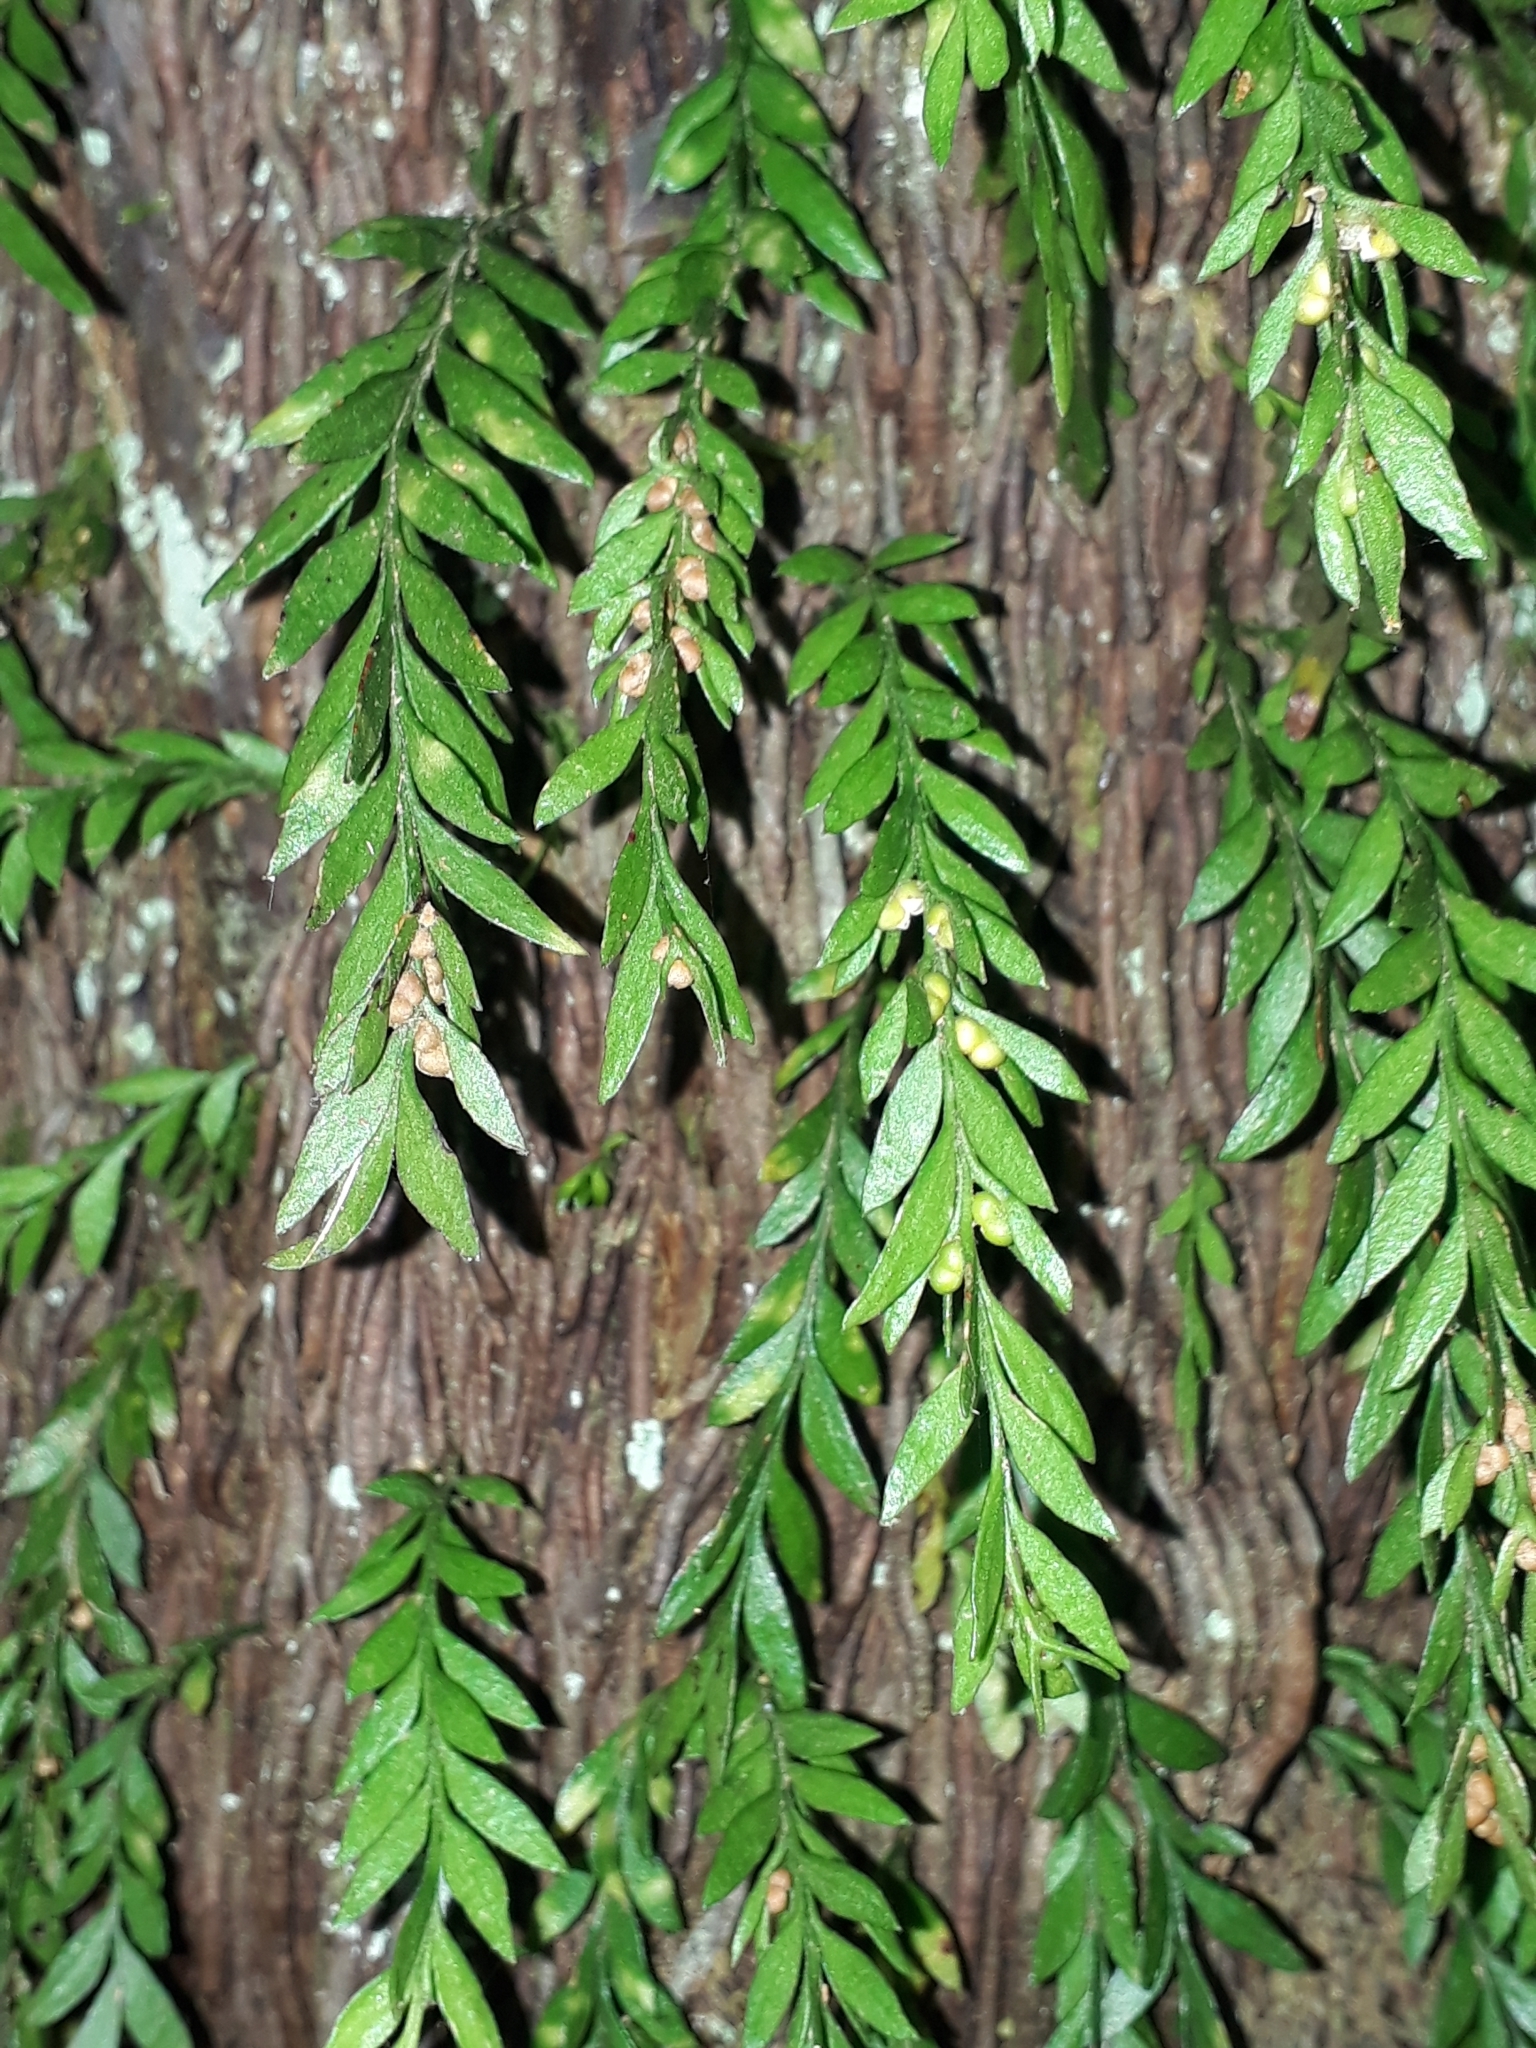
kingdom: Plantae
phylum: Tracheophyta
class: Polypodiopsida
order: Psilotales
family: Psilotaceae
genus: Tmesipteris
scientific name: Tmesipteris parva
